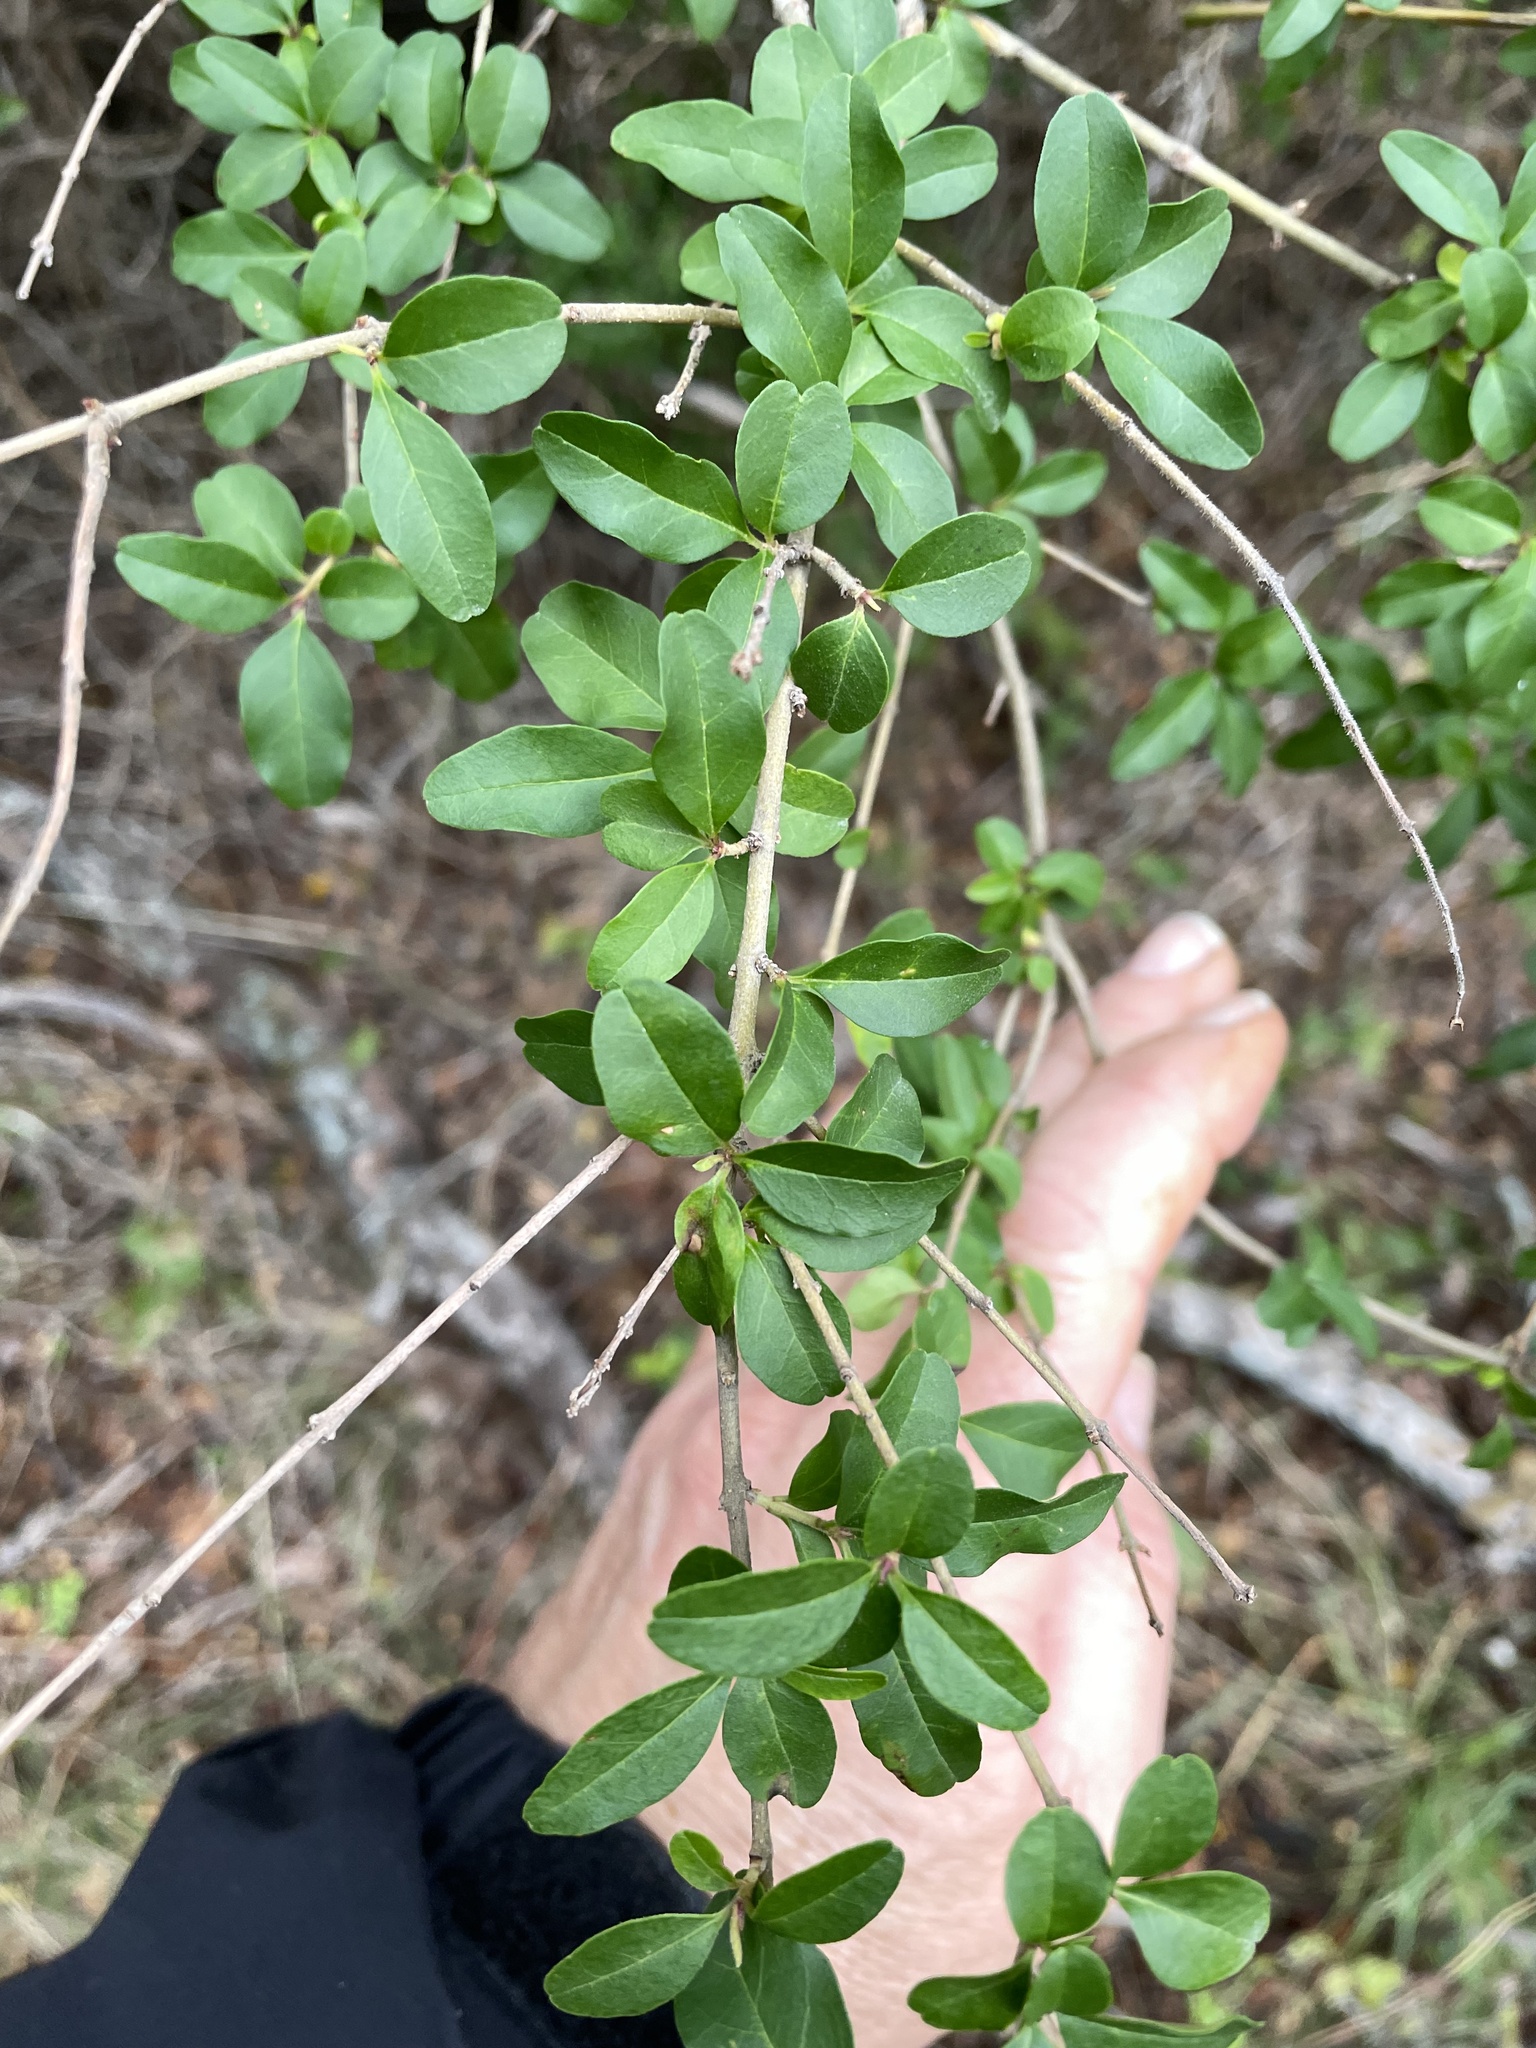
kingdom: Plantae
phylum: Tracheophyta
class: Magnoliopsida
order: Lamiales
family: Oleaceae
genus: Ligustrum
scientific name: Ligustrum sinense
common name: Chinese privet
